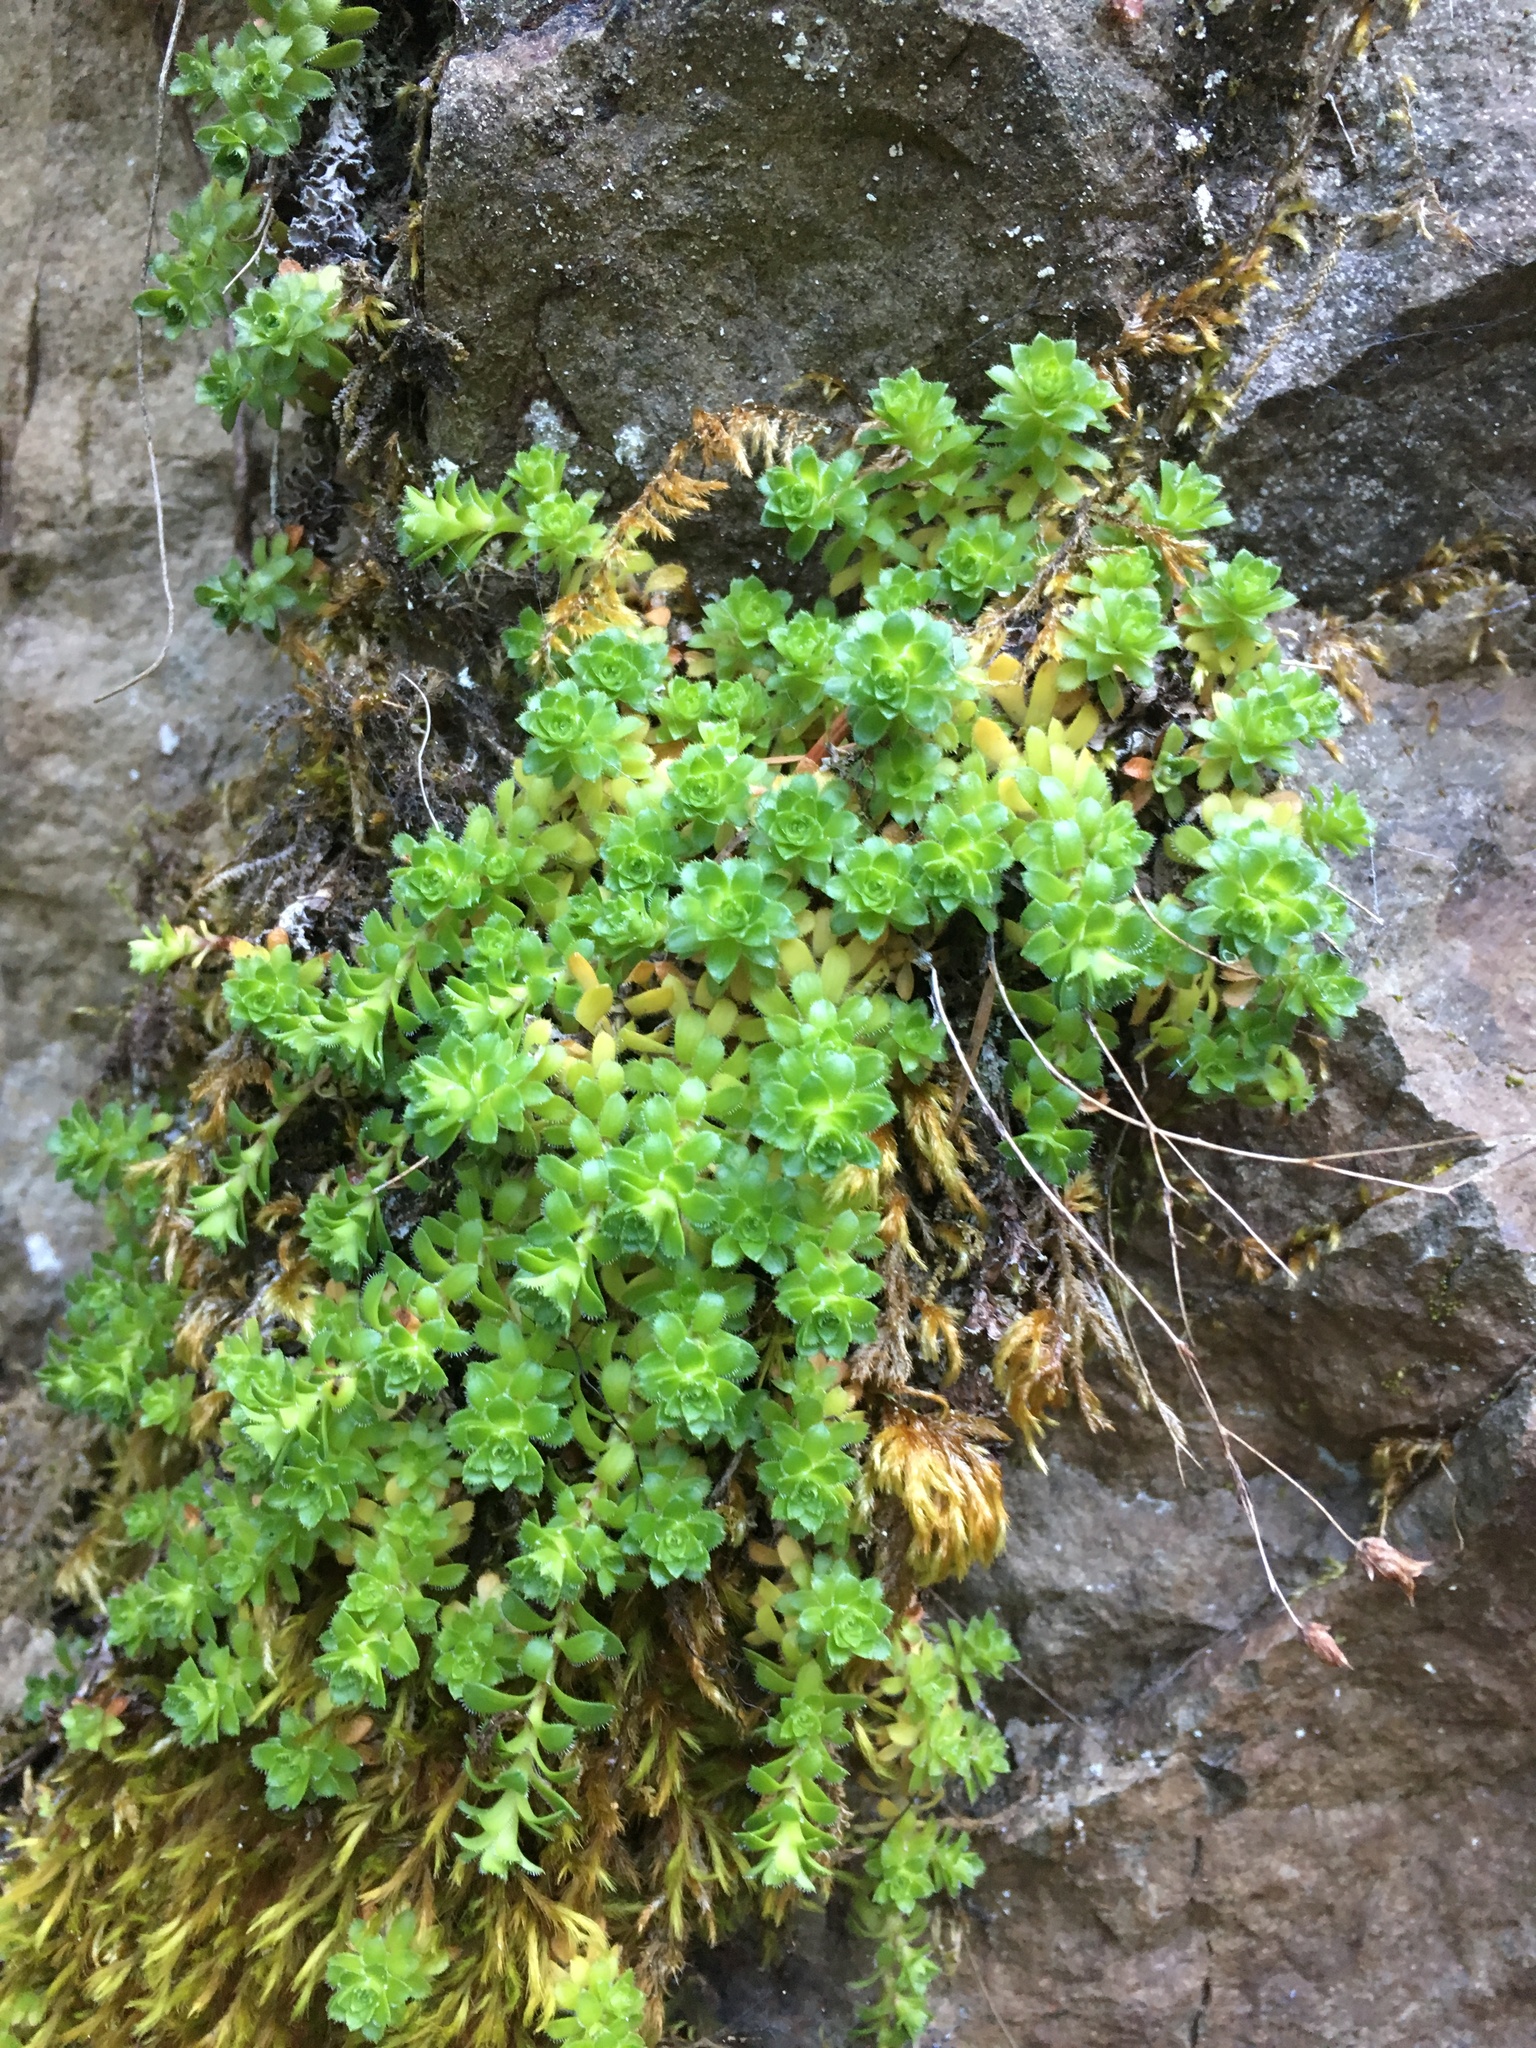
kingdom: Plantae
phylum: Tracheophyta
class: Magnoliopsida
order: Saxifragales
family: Saxifragaceae
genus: Saxifraga
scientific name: Saxifraga vespertina
